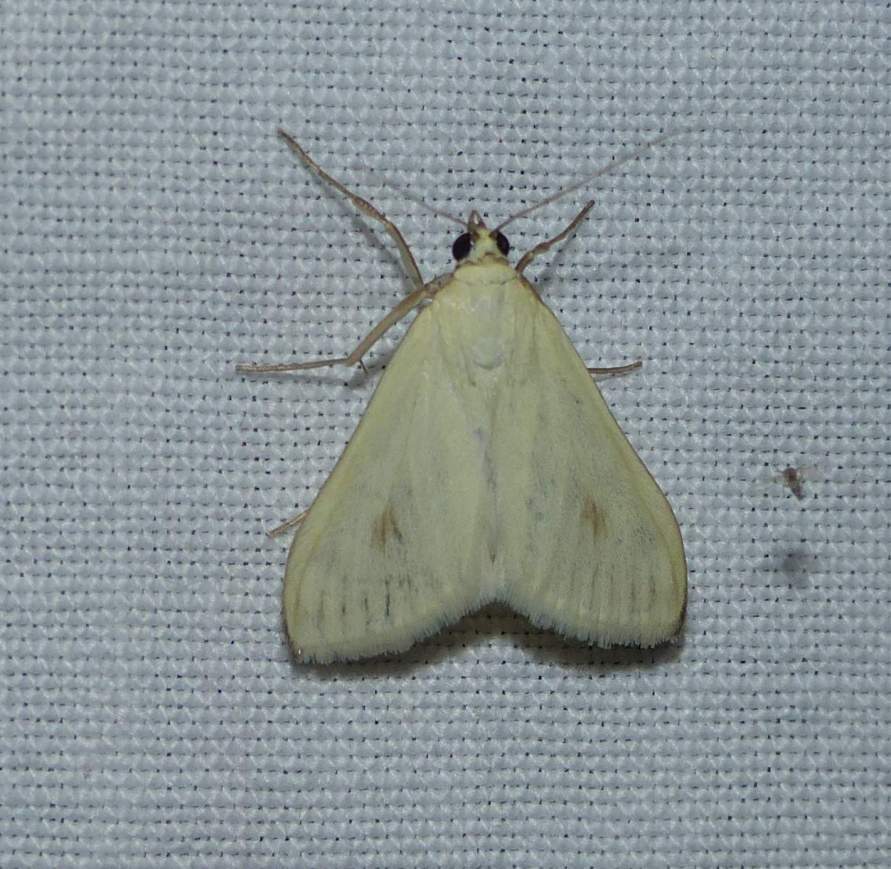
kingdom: Animalia
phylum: Arthropoda
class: Insecta
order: Lepidoptera
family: Crambidae
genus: Sitochroa
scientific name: Sitochroa palealis
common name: Greenish-yellow sitochroa moth
